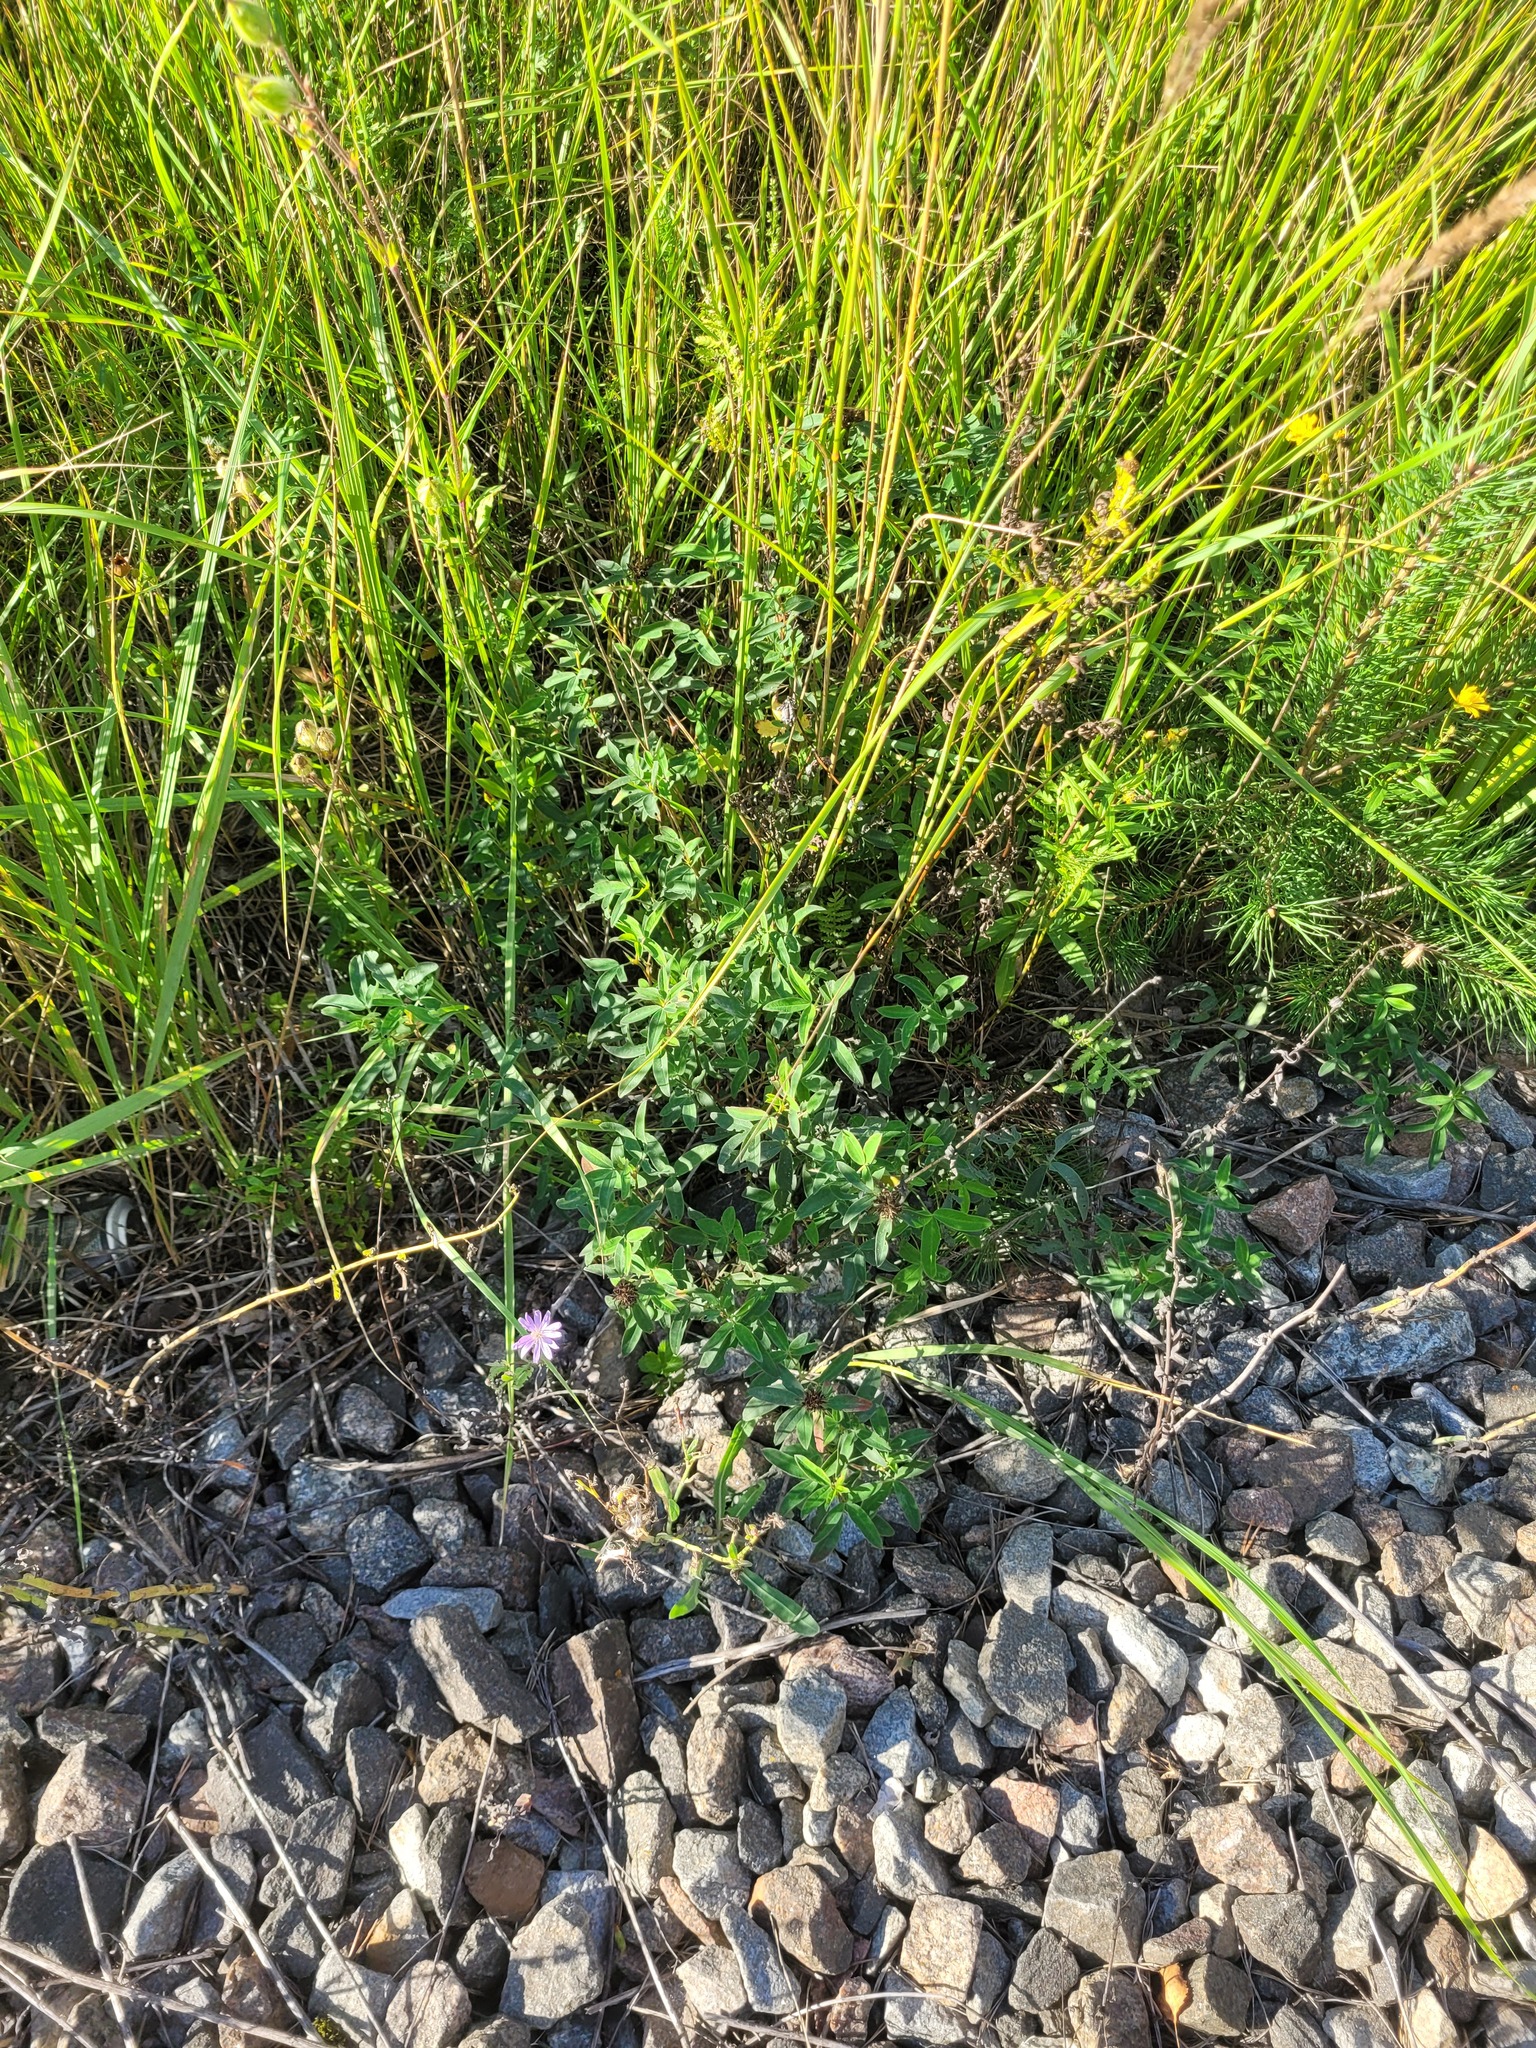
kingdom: Plantae
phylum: Tracheophyta
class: Magnoliopsida
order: Fabales
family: Fabaceae
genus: Trifolium
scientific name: Trifolium medium
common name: Zigzag clover
